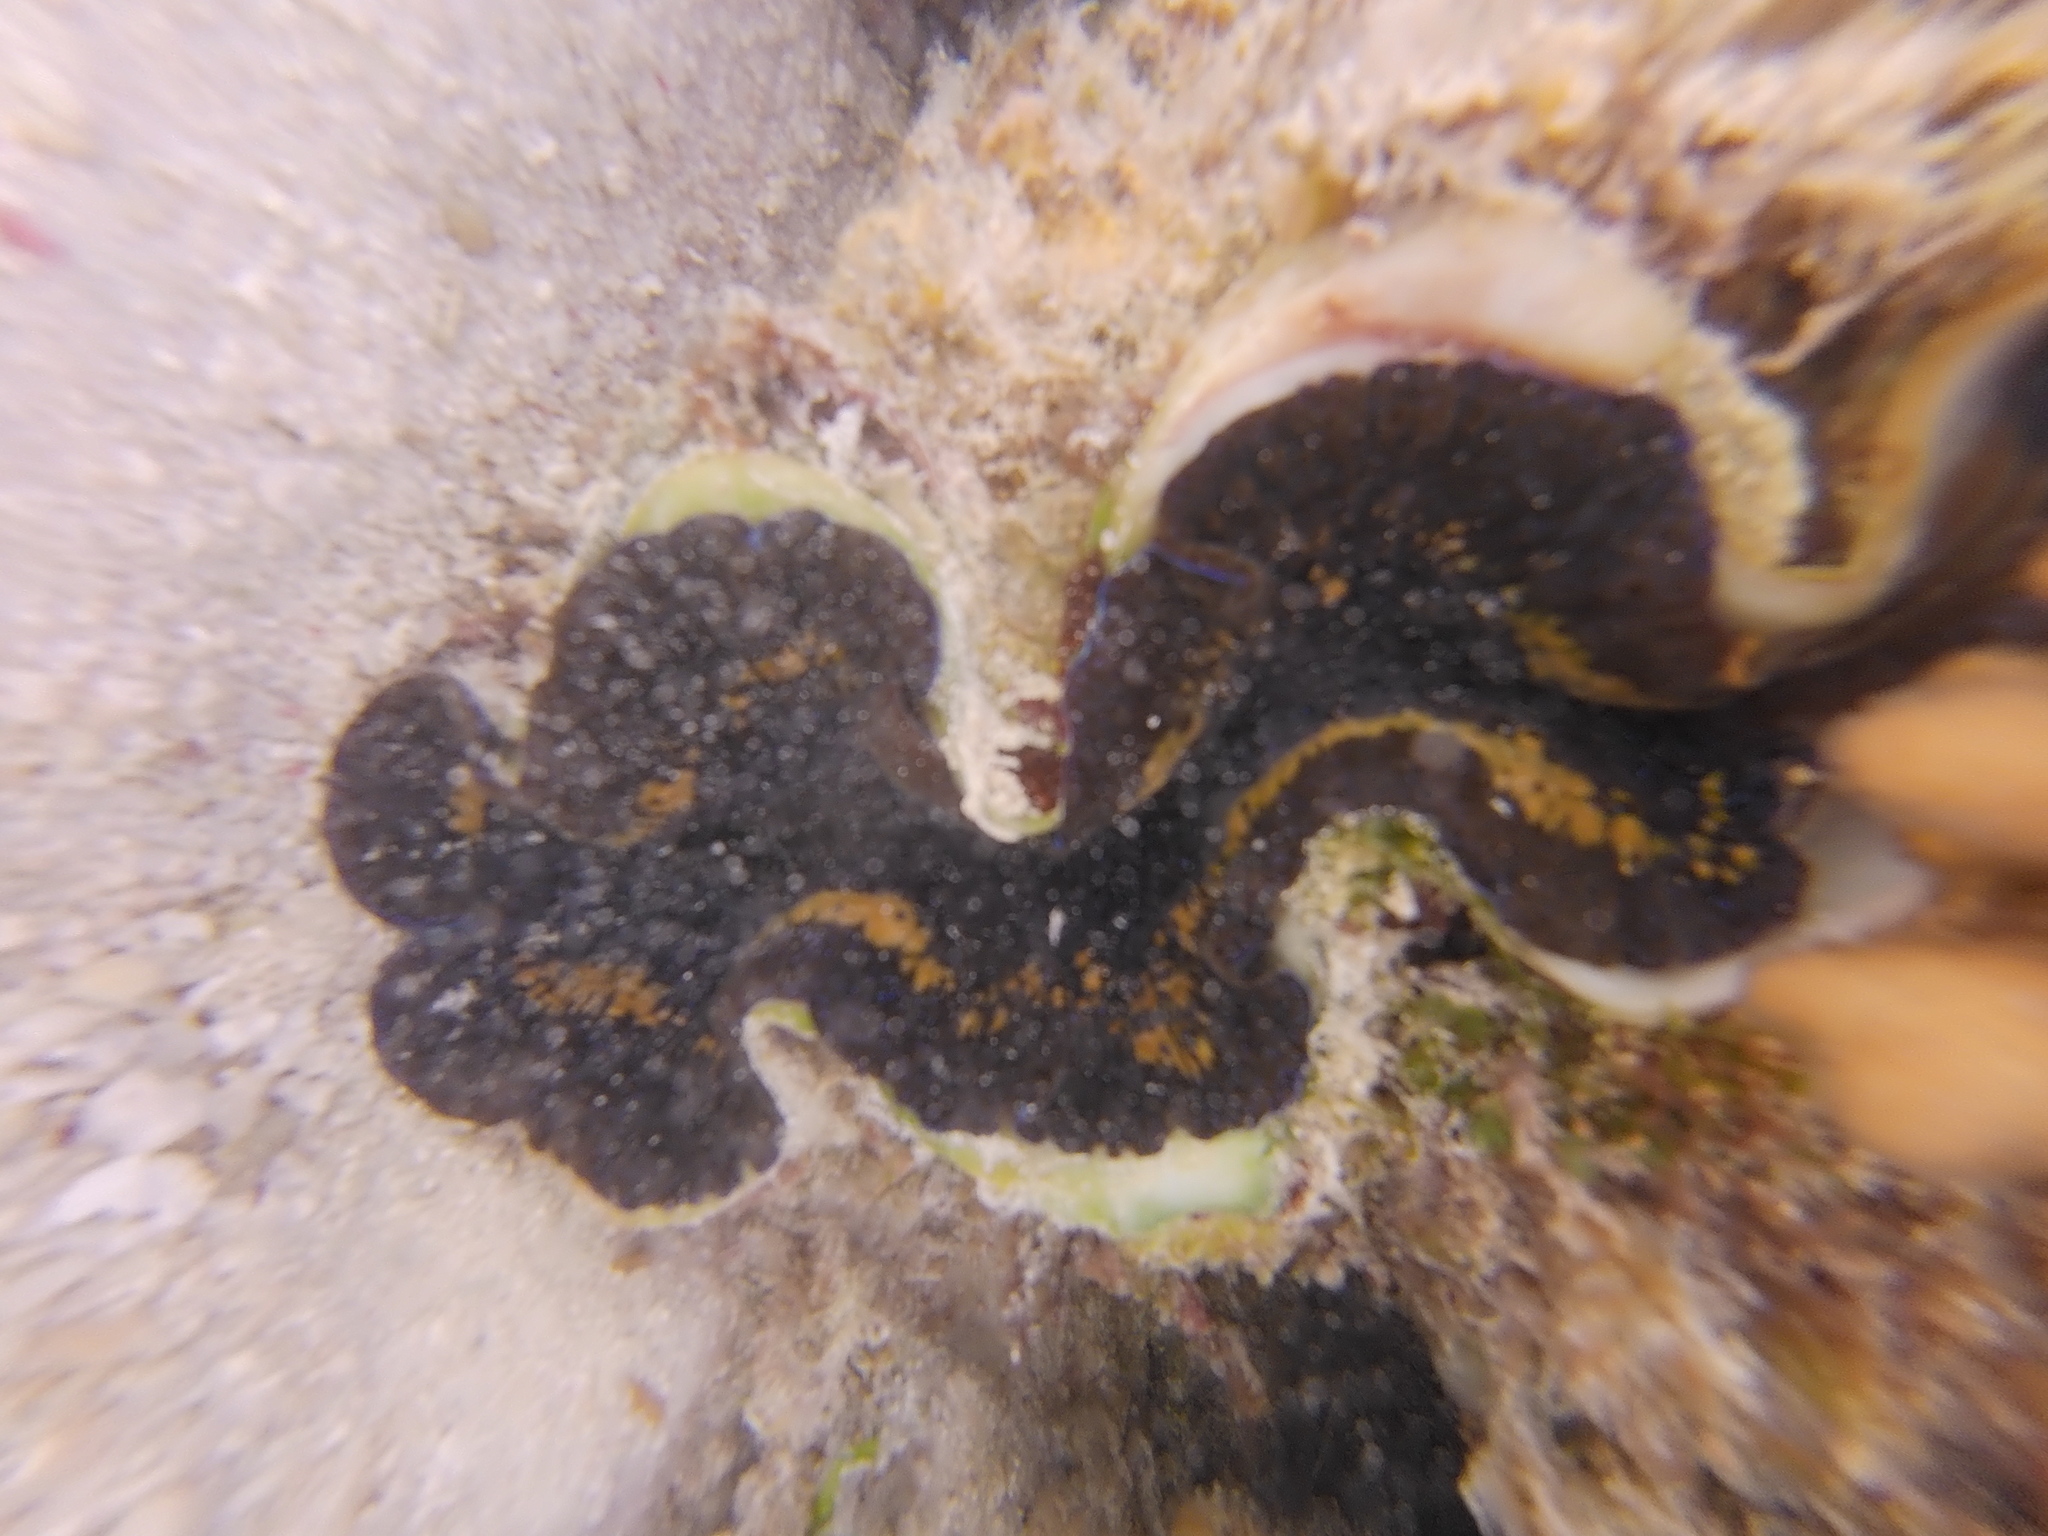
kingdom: Animalia
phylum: Mollusca
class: Bivalvia
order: Cardiida
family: Cardiidae
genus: Tridacna
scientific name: Tridacna maxima
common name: Small giant clam
